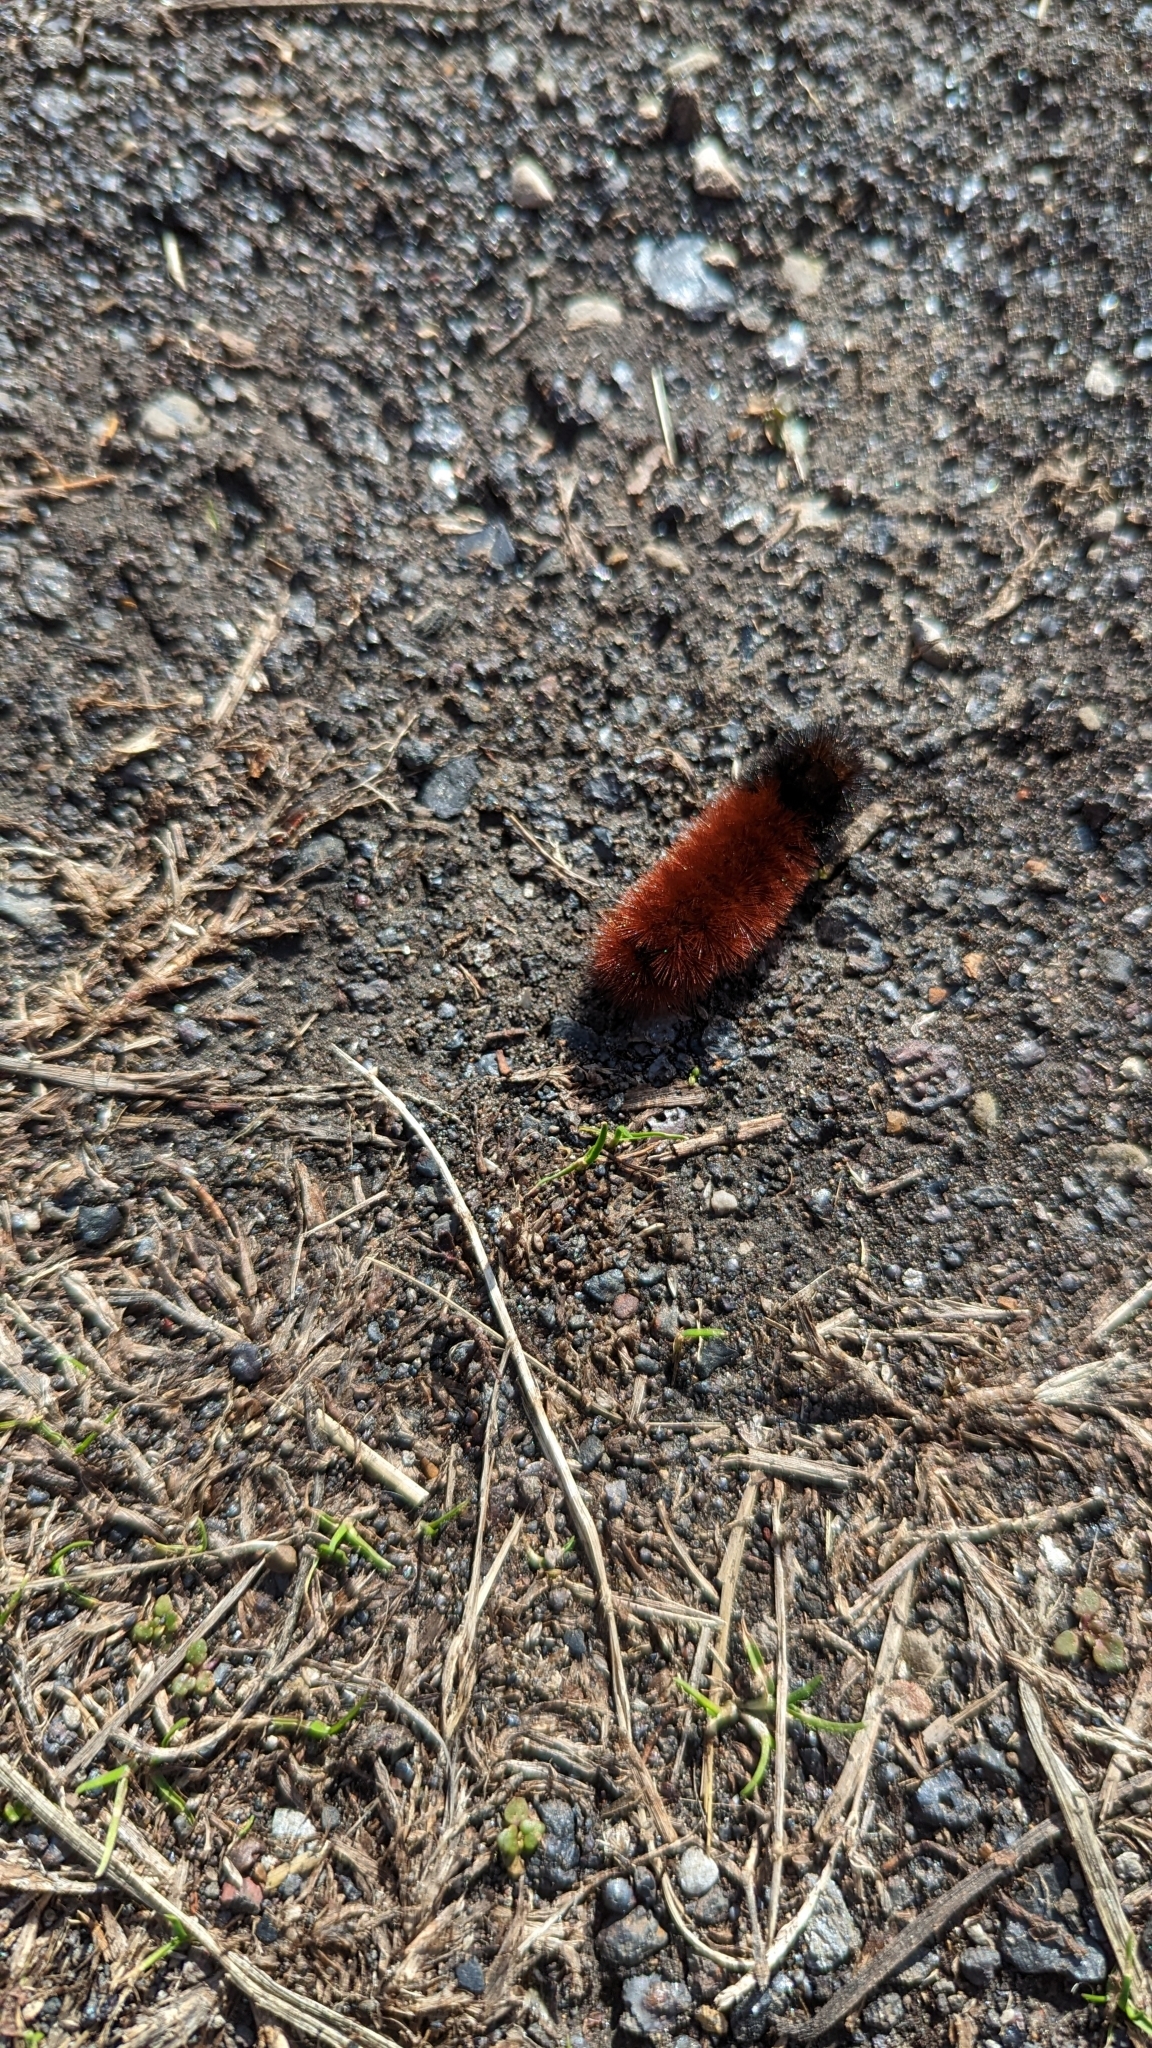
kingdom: Animalia
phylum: Arthropoda
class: Insecta
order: Lepidoptera
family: Erebidae
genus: Pyrrharctia
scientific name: Pyrrharctia isabella
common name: Isabella tiger moth
